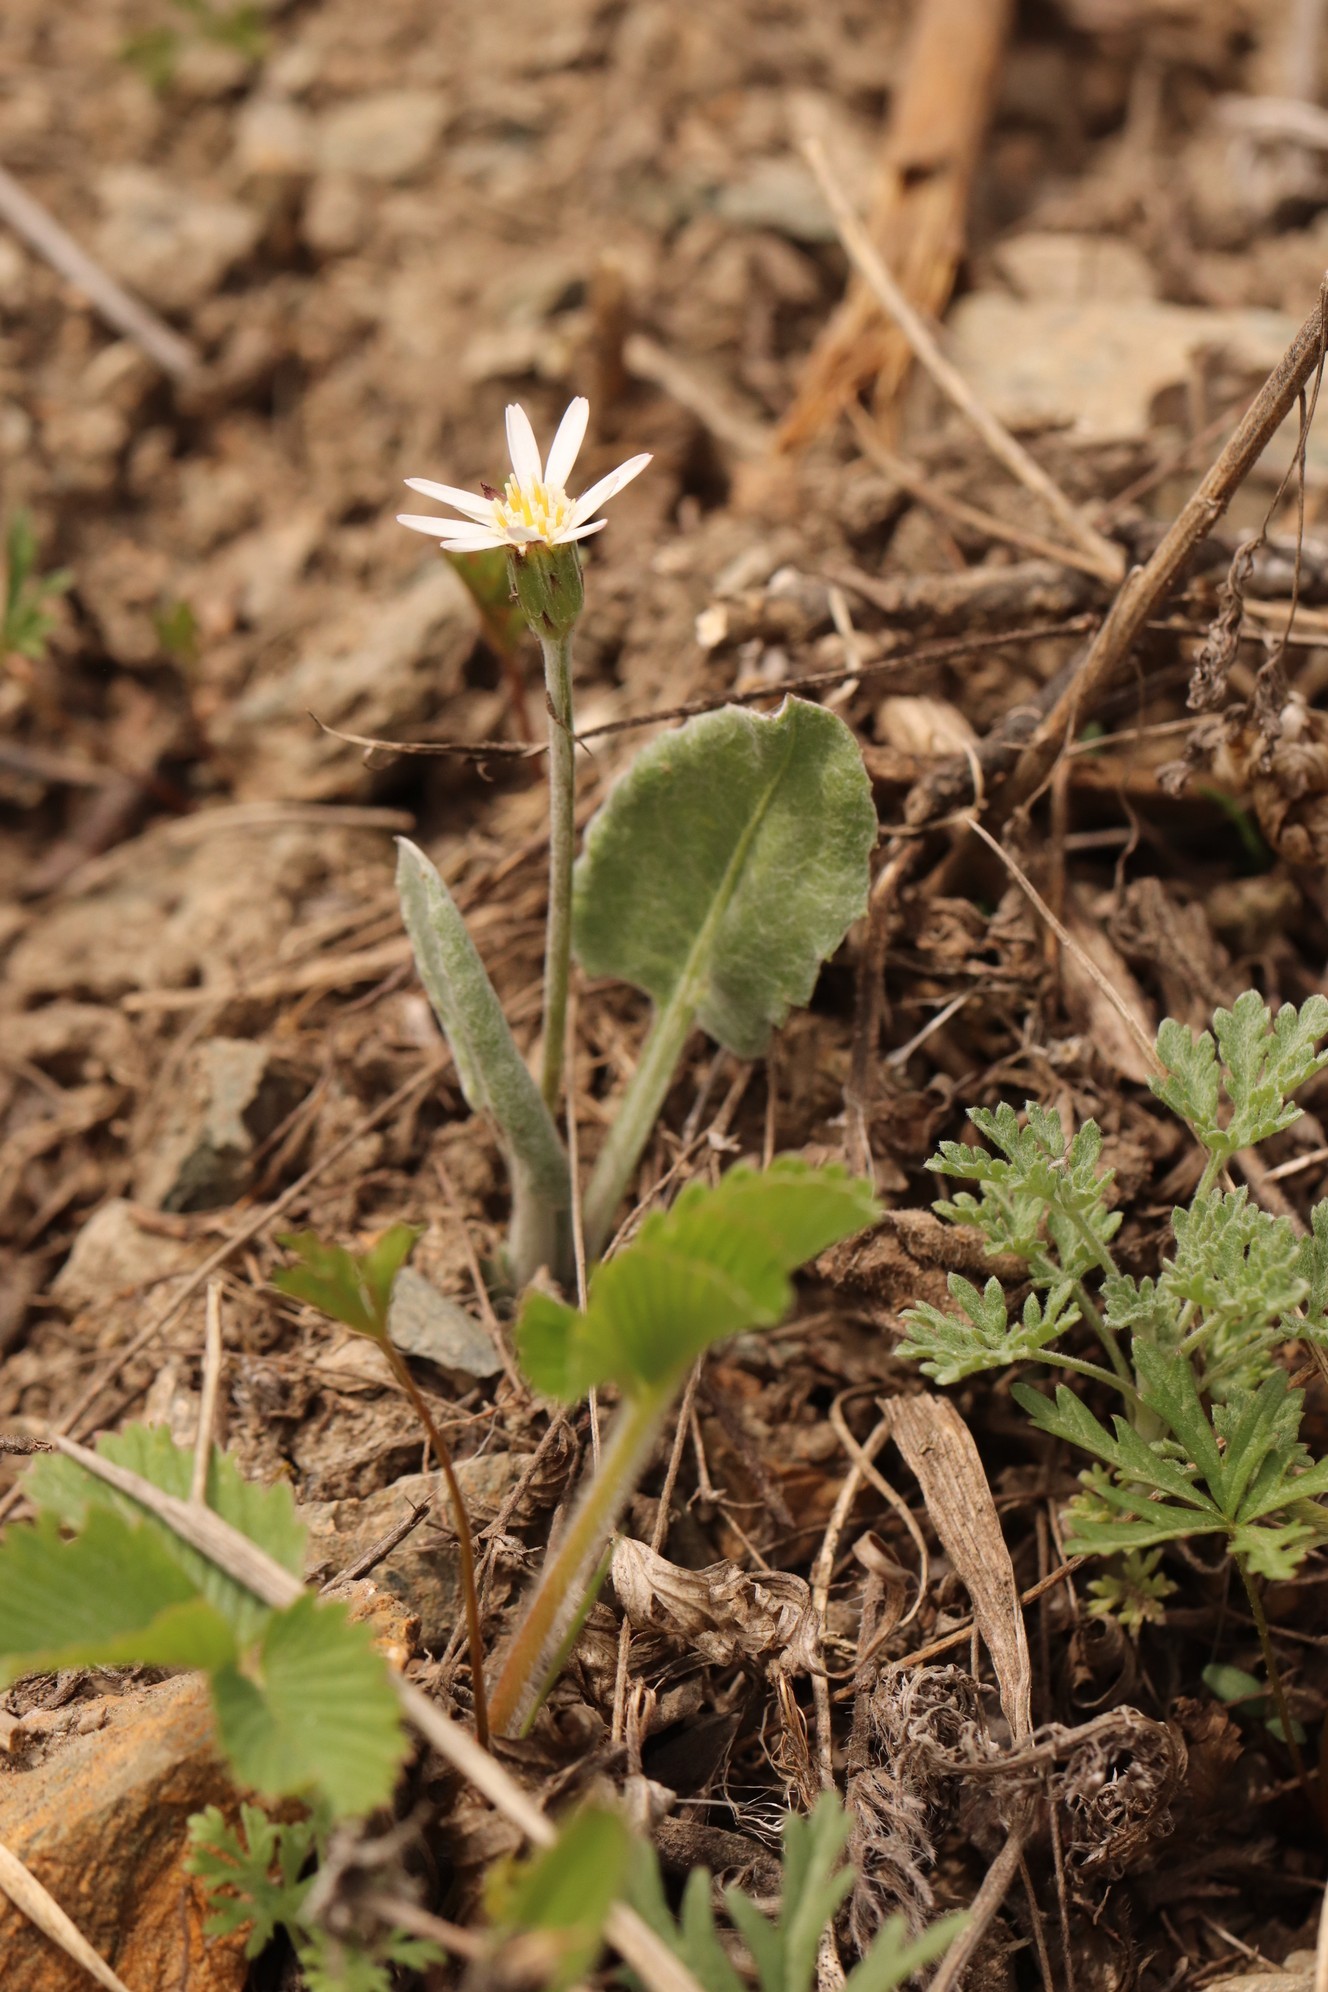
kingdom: Plantae
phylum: Tracheophyta
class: Magnoliopsida
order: Asterales
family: Asteraceae
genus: Leibnitzia
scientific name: Leibnitzia anandria
